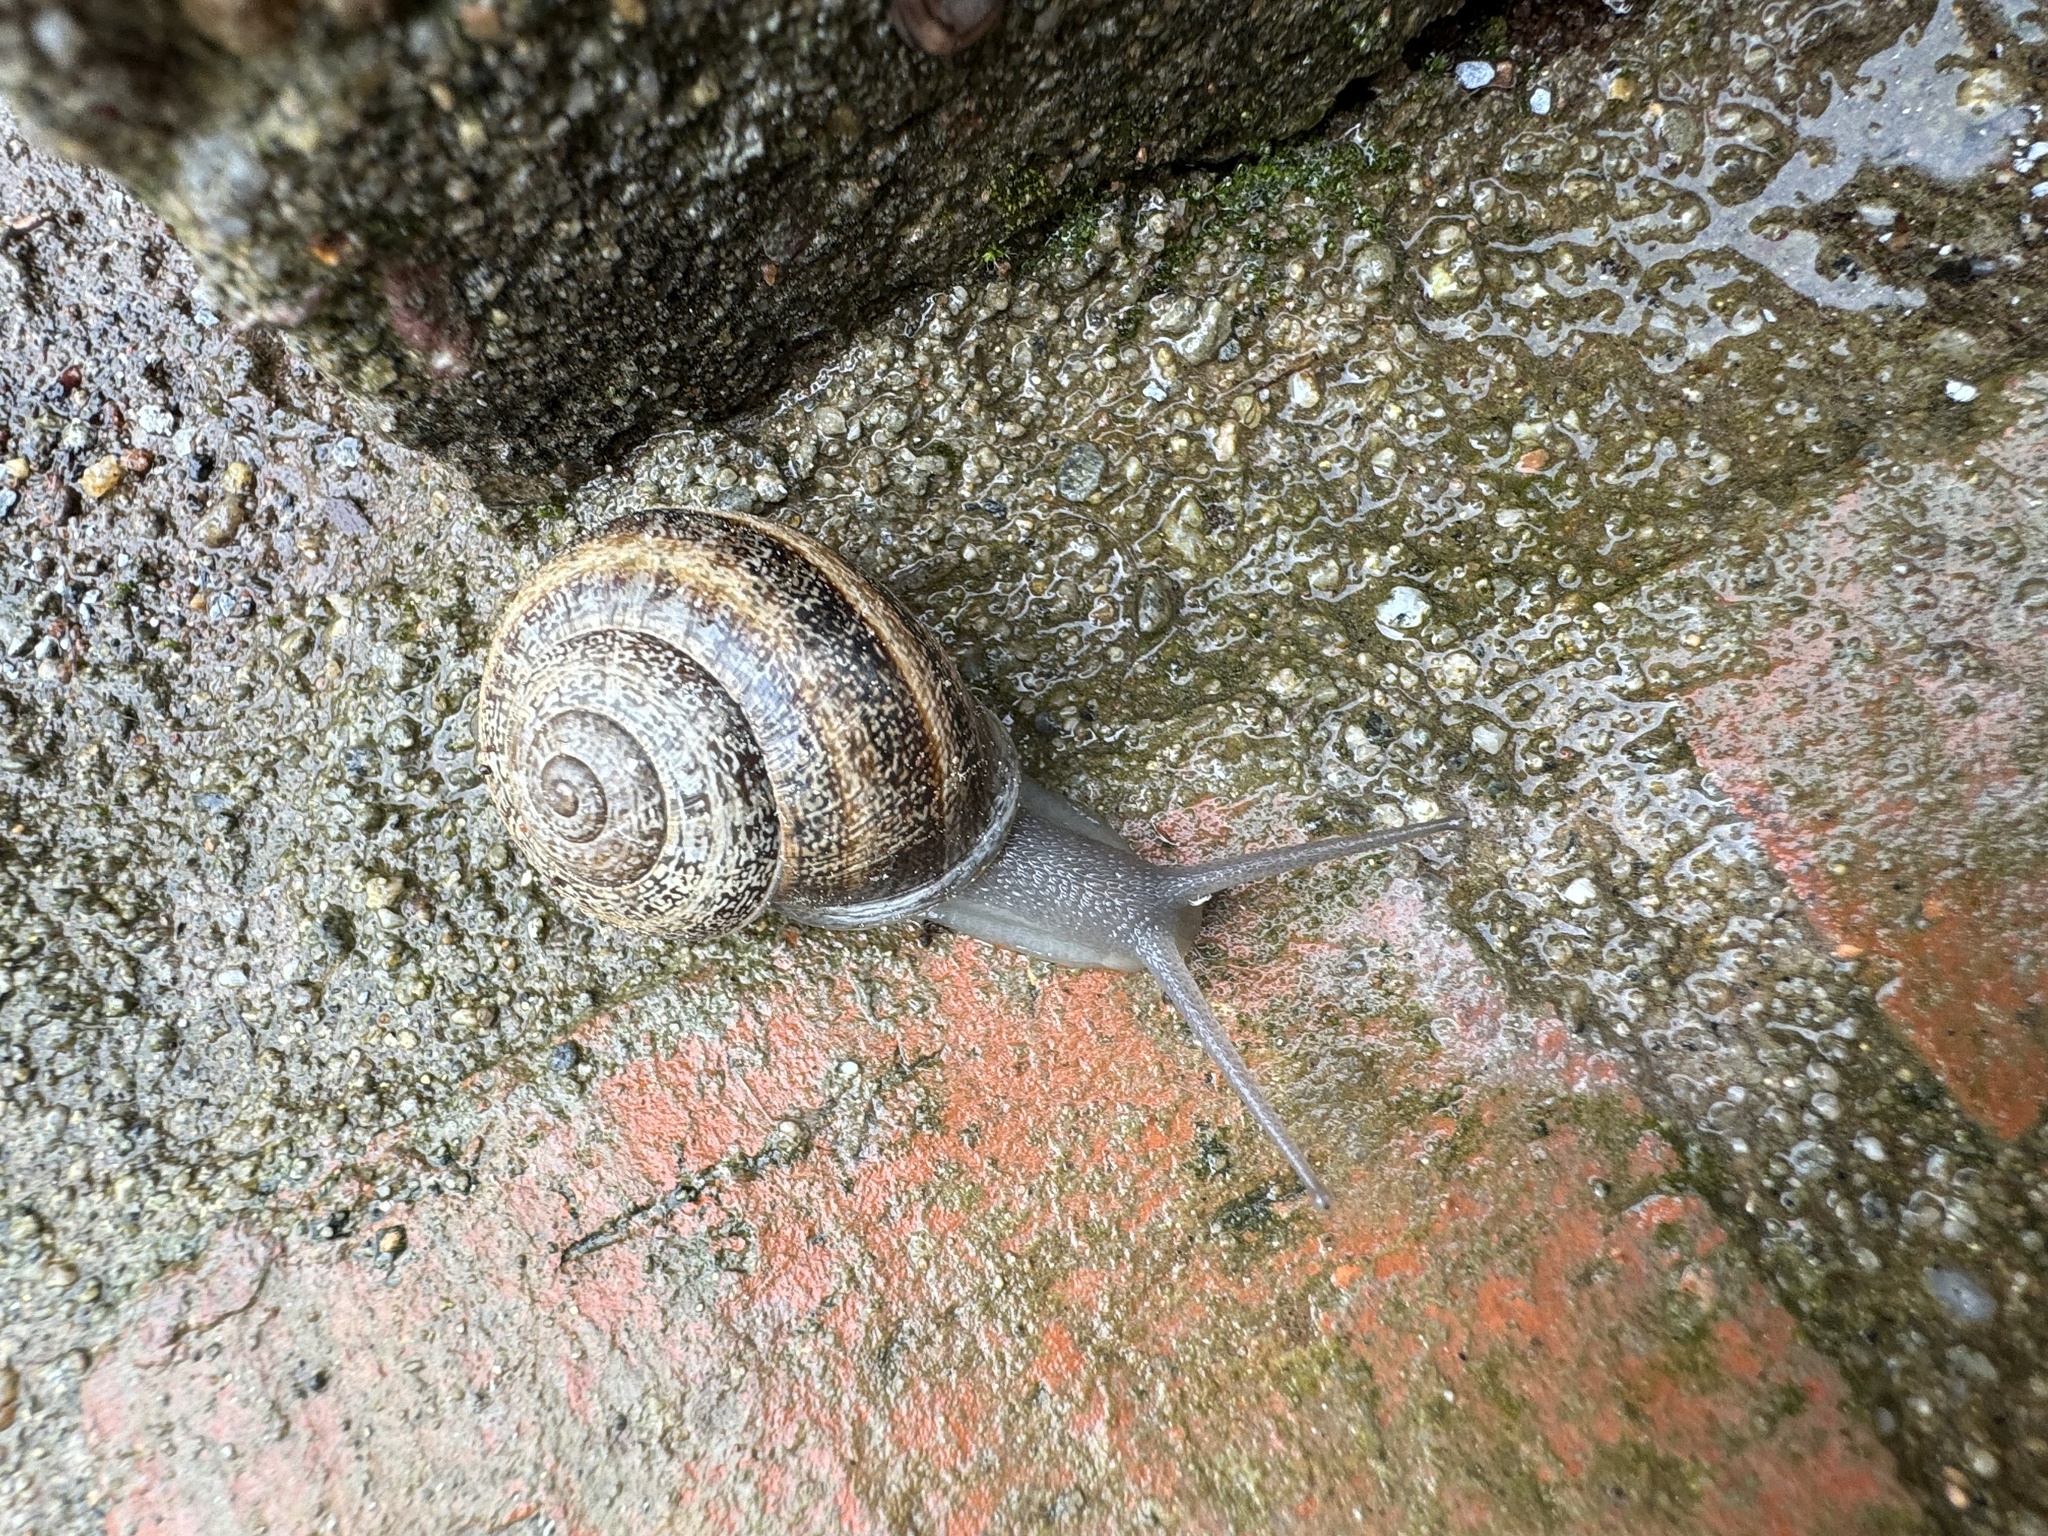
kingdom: Animalia
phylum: Mollusca
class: Gastropoda
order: Stylommatophora
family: Helicidae
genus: Otala
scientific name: Otala lactea
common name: Milk snail
